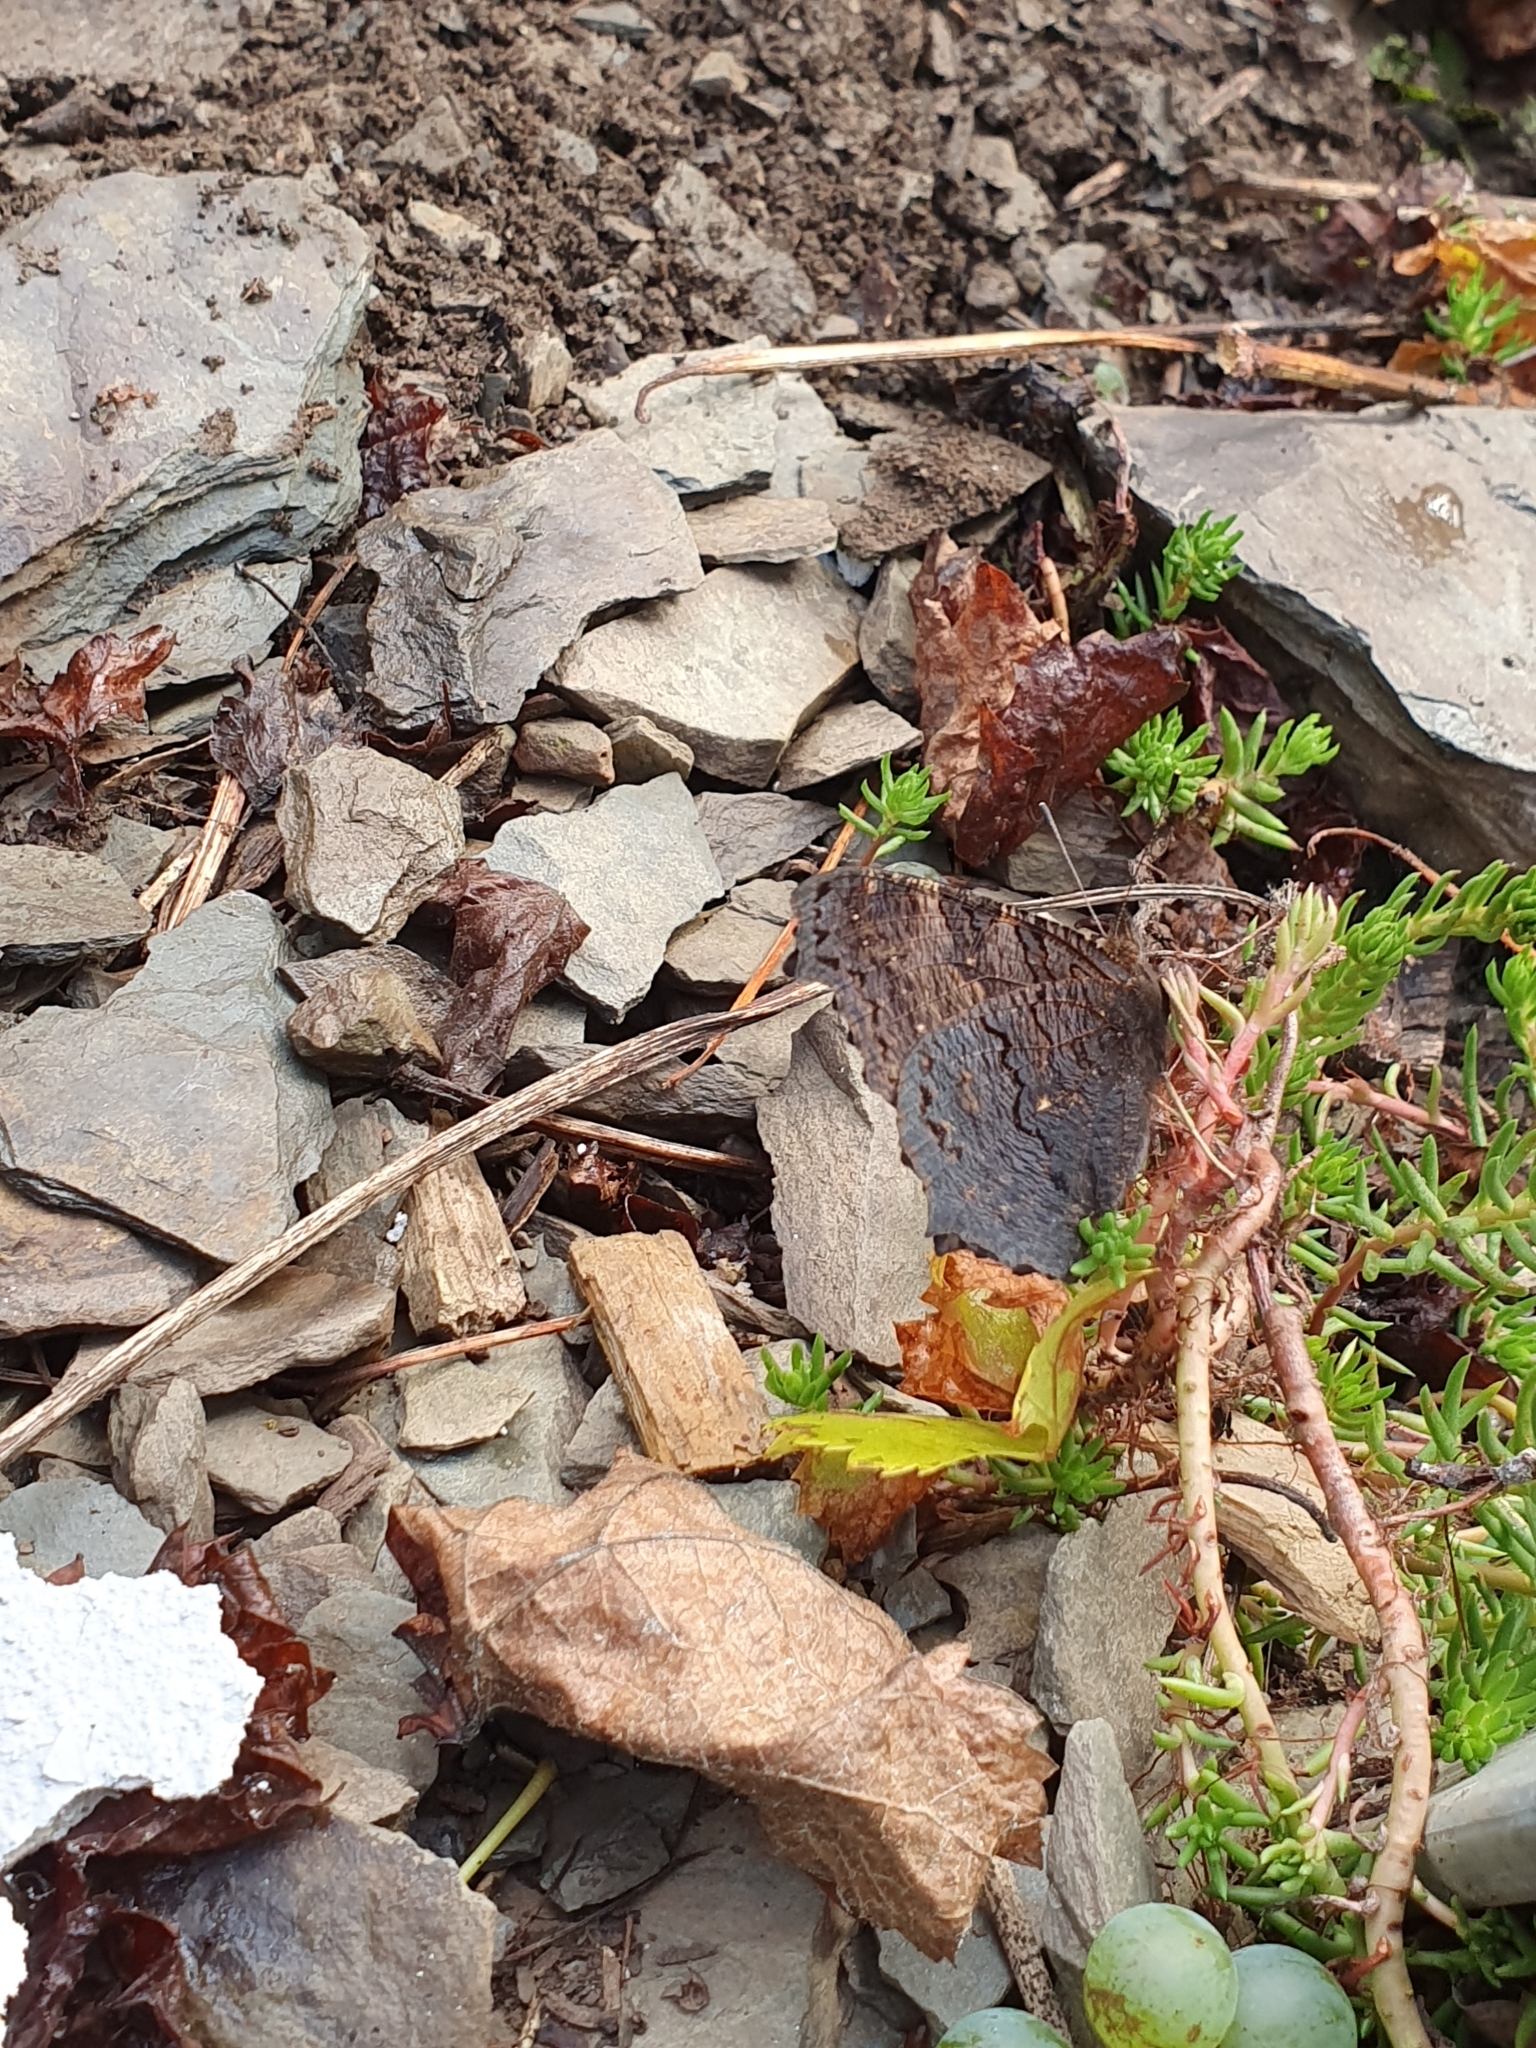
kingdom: Animalia
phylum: Arthropoda
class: Insecta
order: Lepidoptera
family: Nymphalidae
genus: Aglais
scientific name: Aglais io
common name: Peacock
